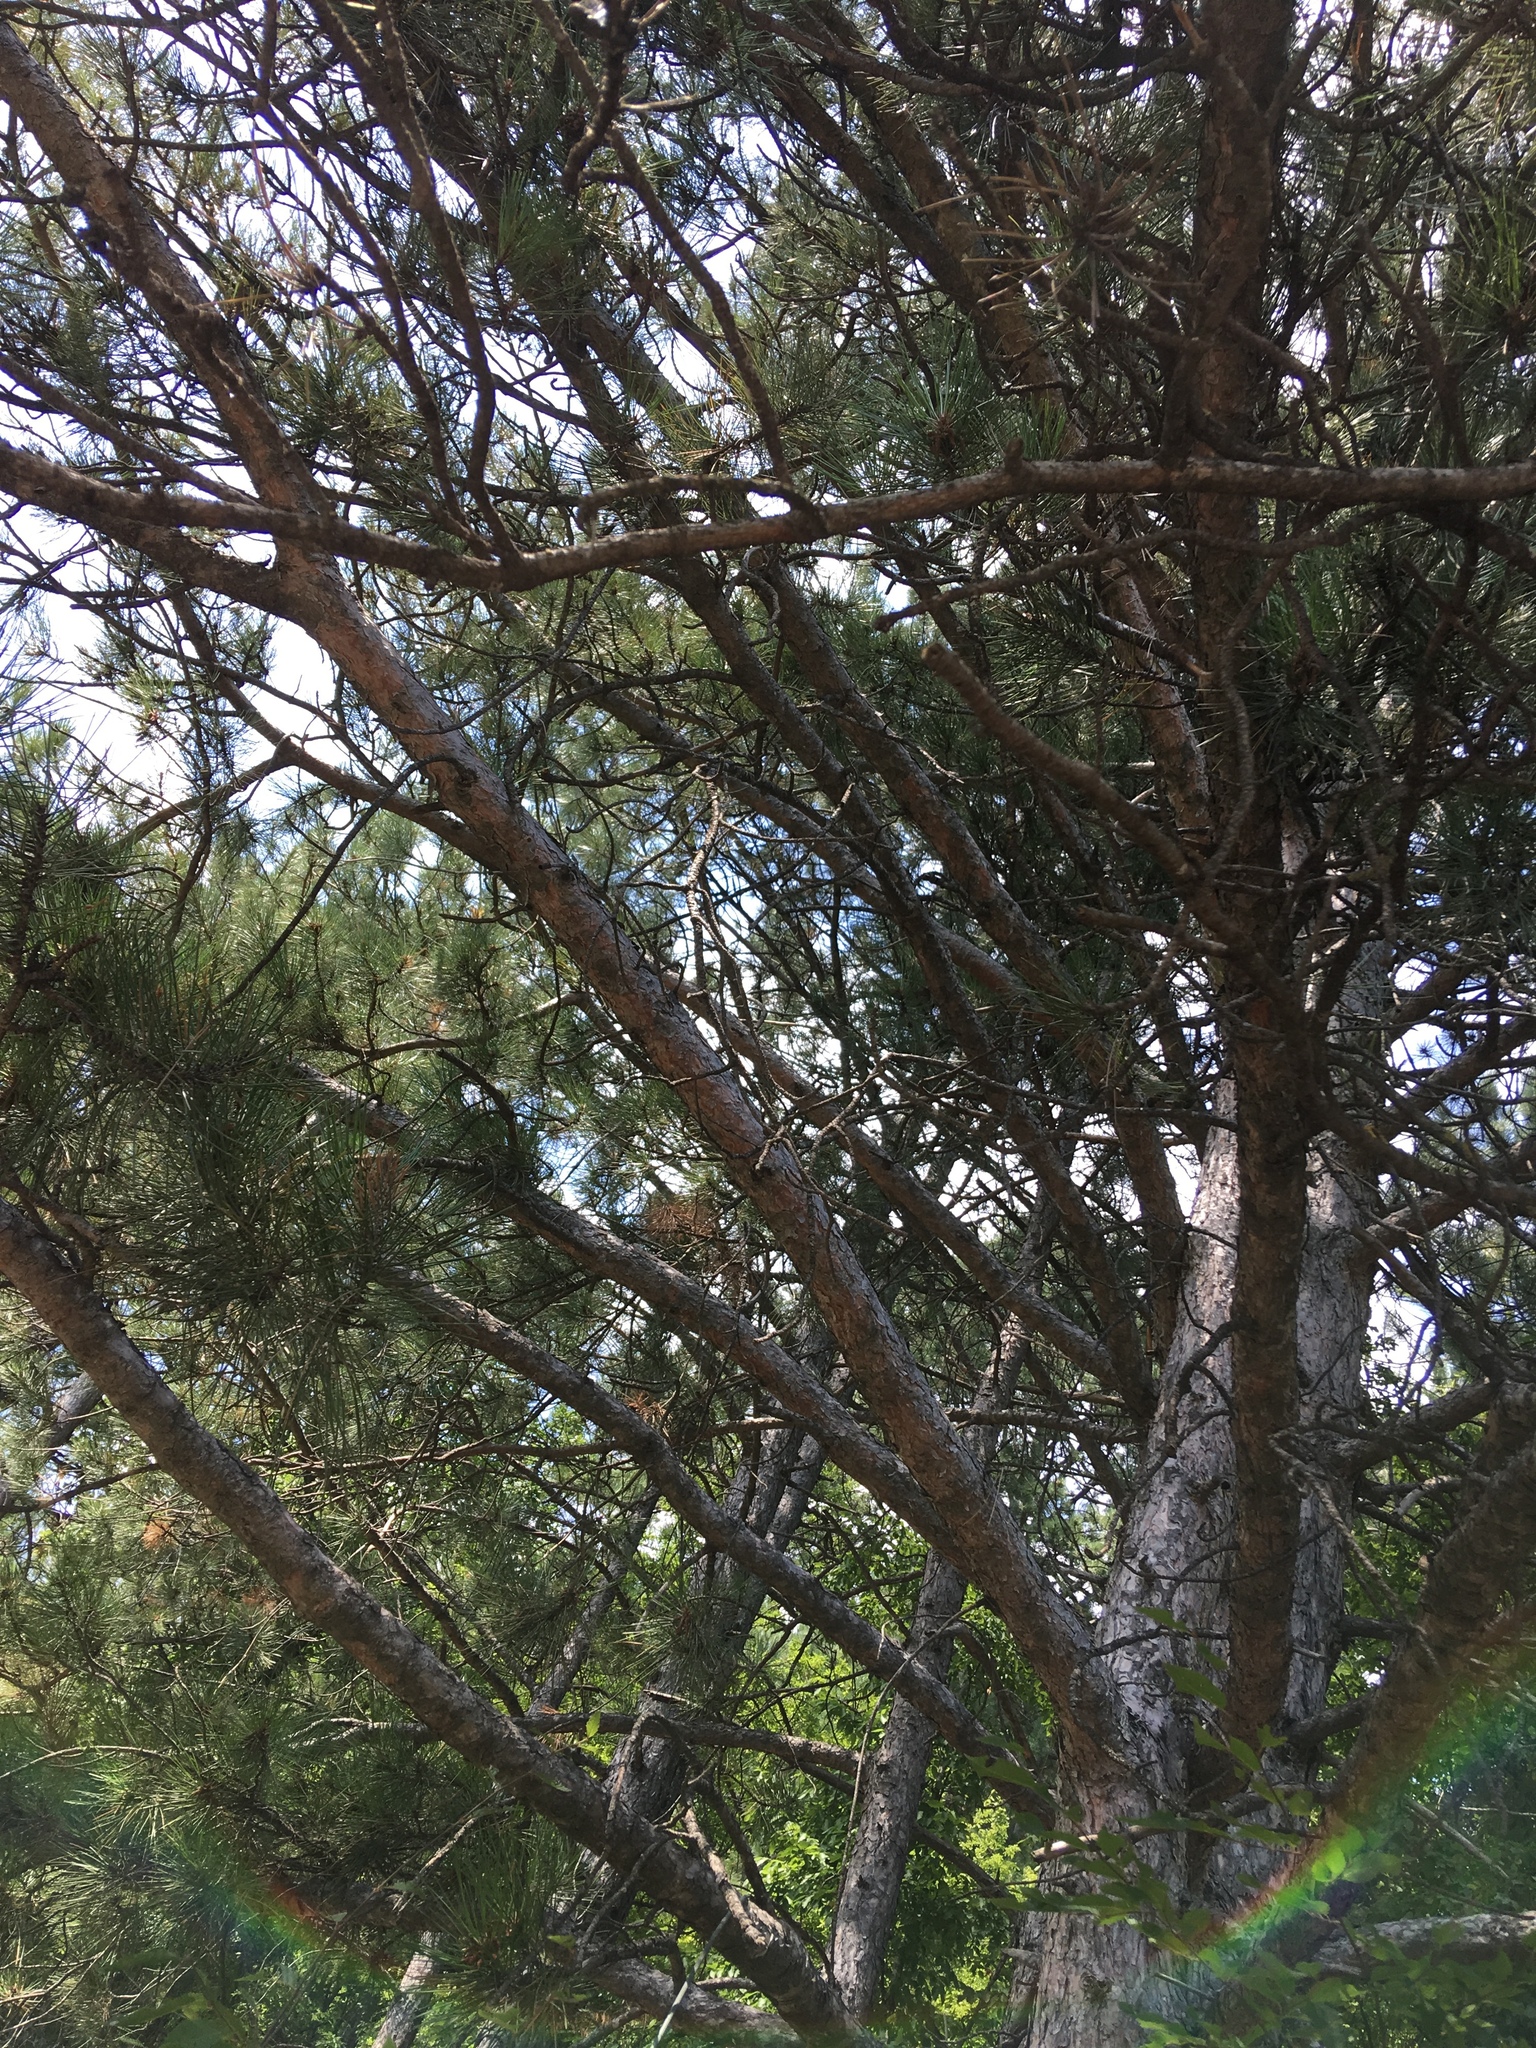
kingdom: Plantae
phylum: Tracheophyta
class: Pinopsida
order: Pinales
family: Pinaceae
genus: Pinus
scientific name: Pinus nigra
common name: Austrian pine
